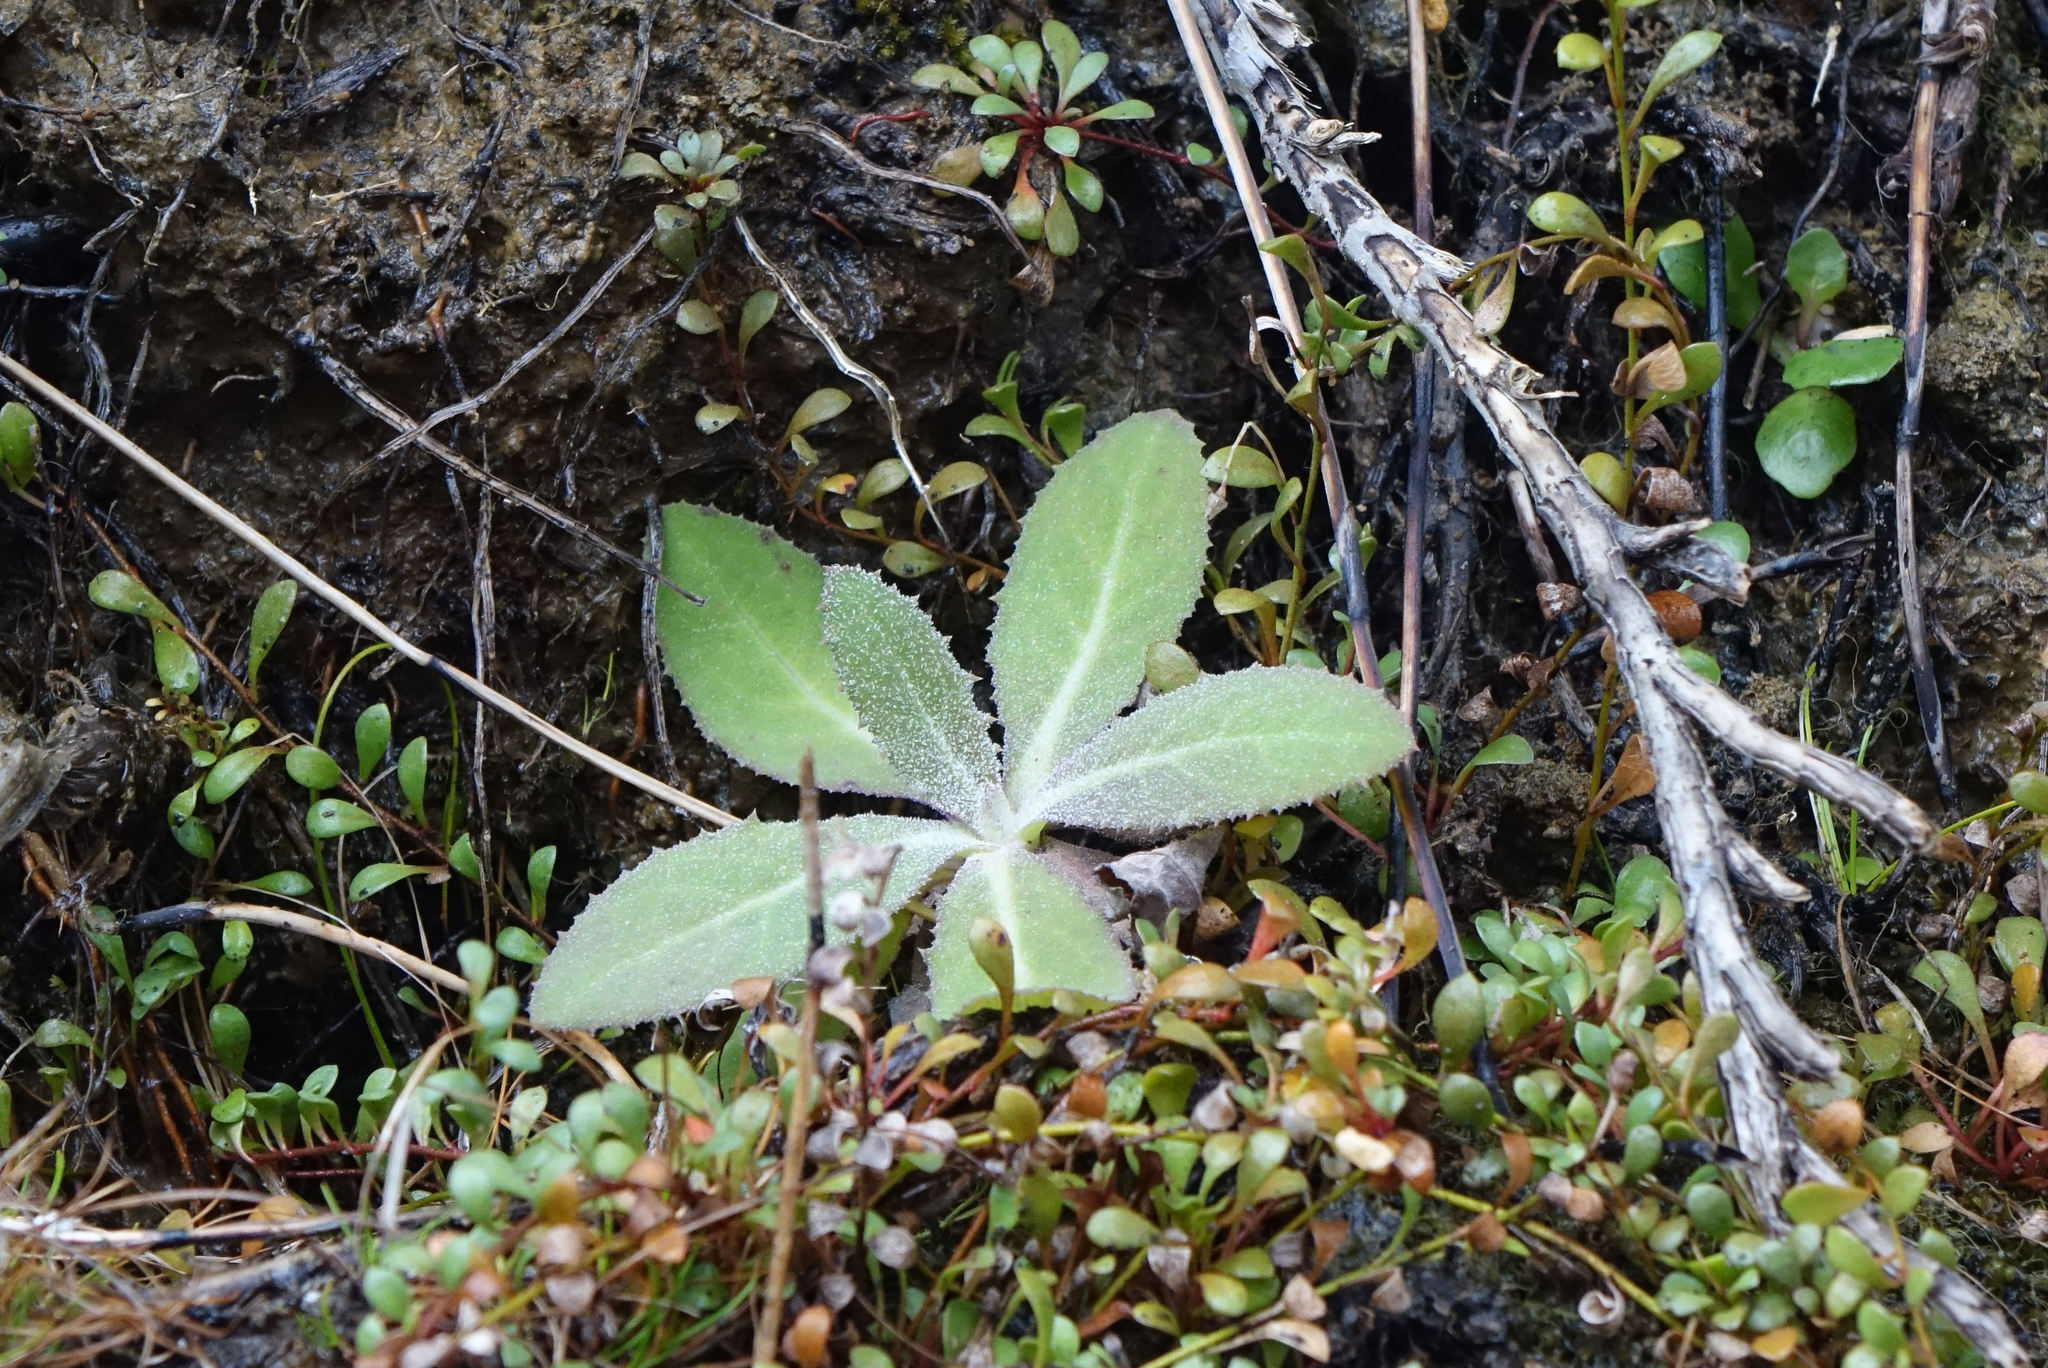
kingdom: Plantae
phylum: Tracheophyta
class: Magnoliopsida
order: Asterales
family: Asteraceae
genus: Sonchus
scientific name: Sonchus kirkii
